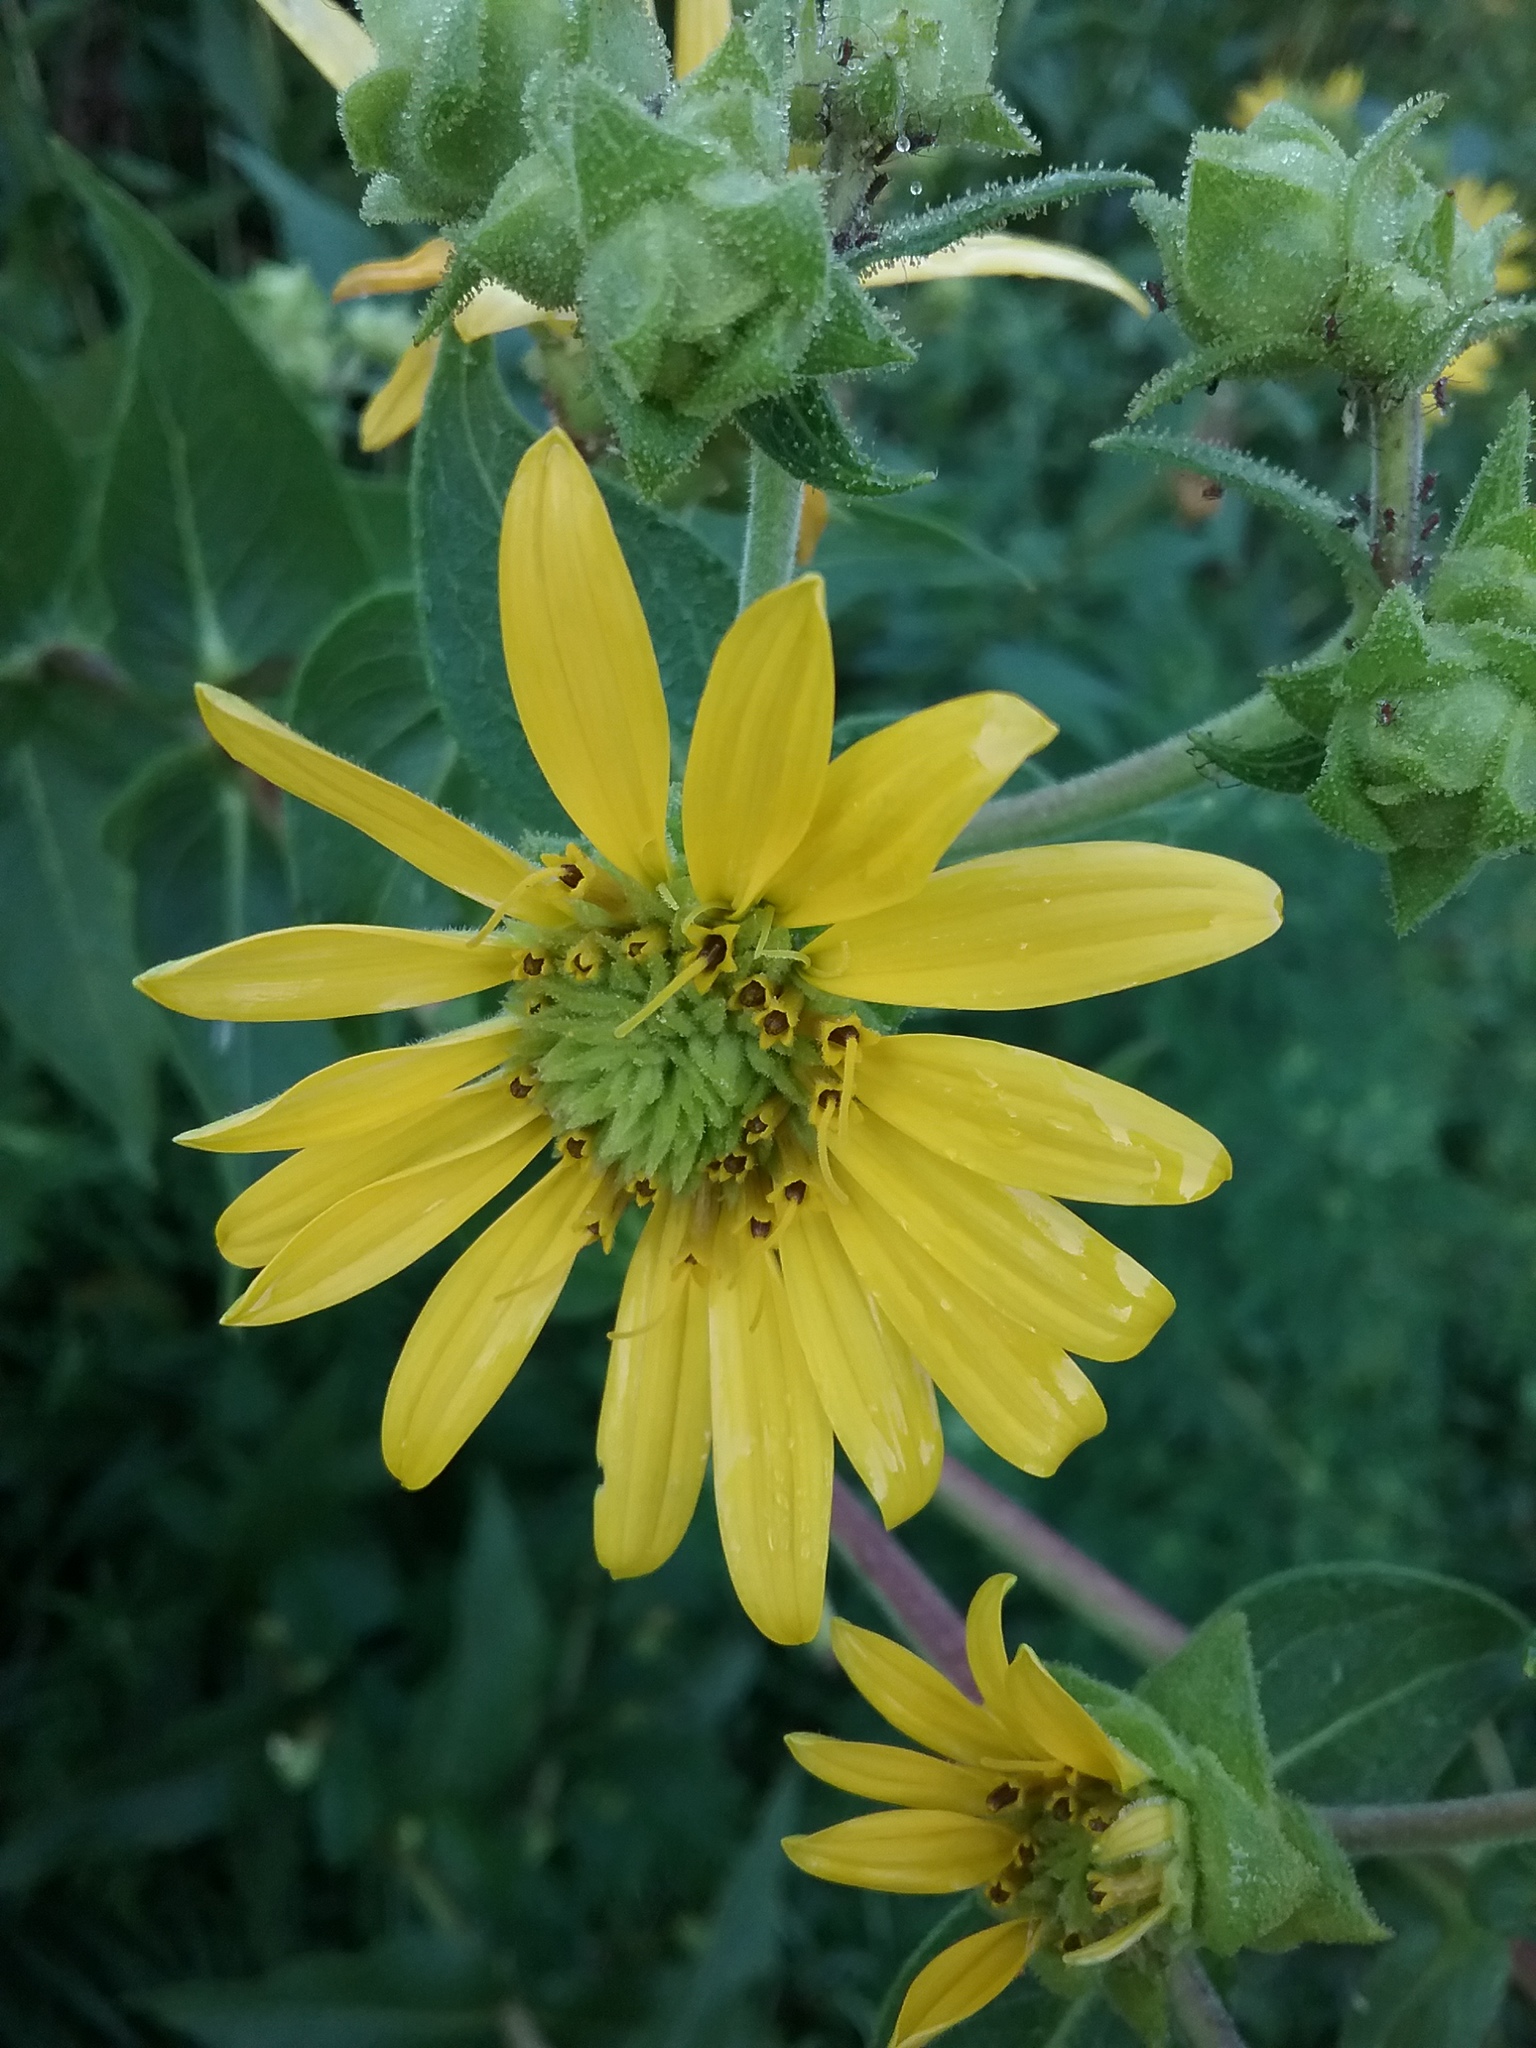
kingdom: Plantae
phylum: Tracheophyta
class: Magnoliopsida
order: Asterales
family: Asteraceae
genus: Silphium
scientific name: Silphium integrifolium
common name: Whole-leaf rosinweed
